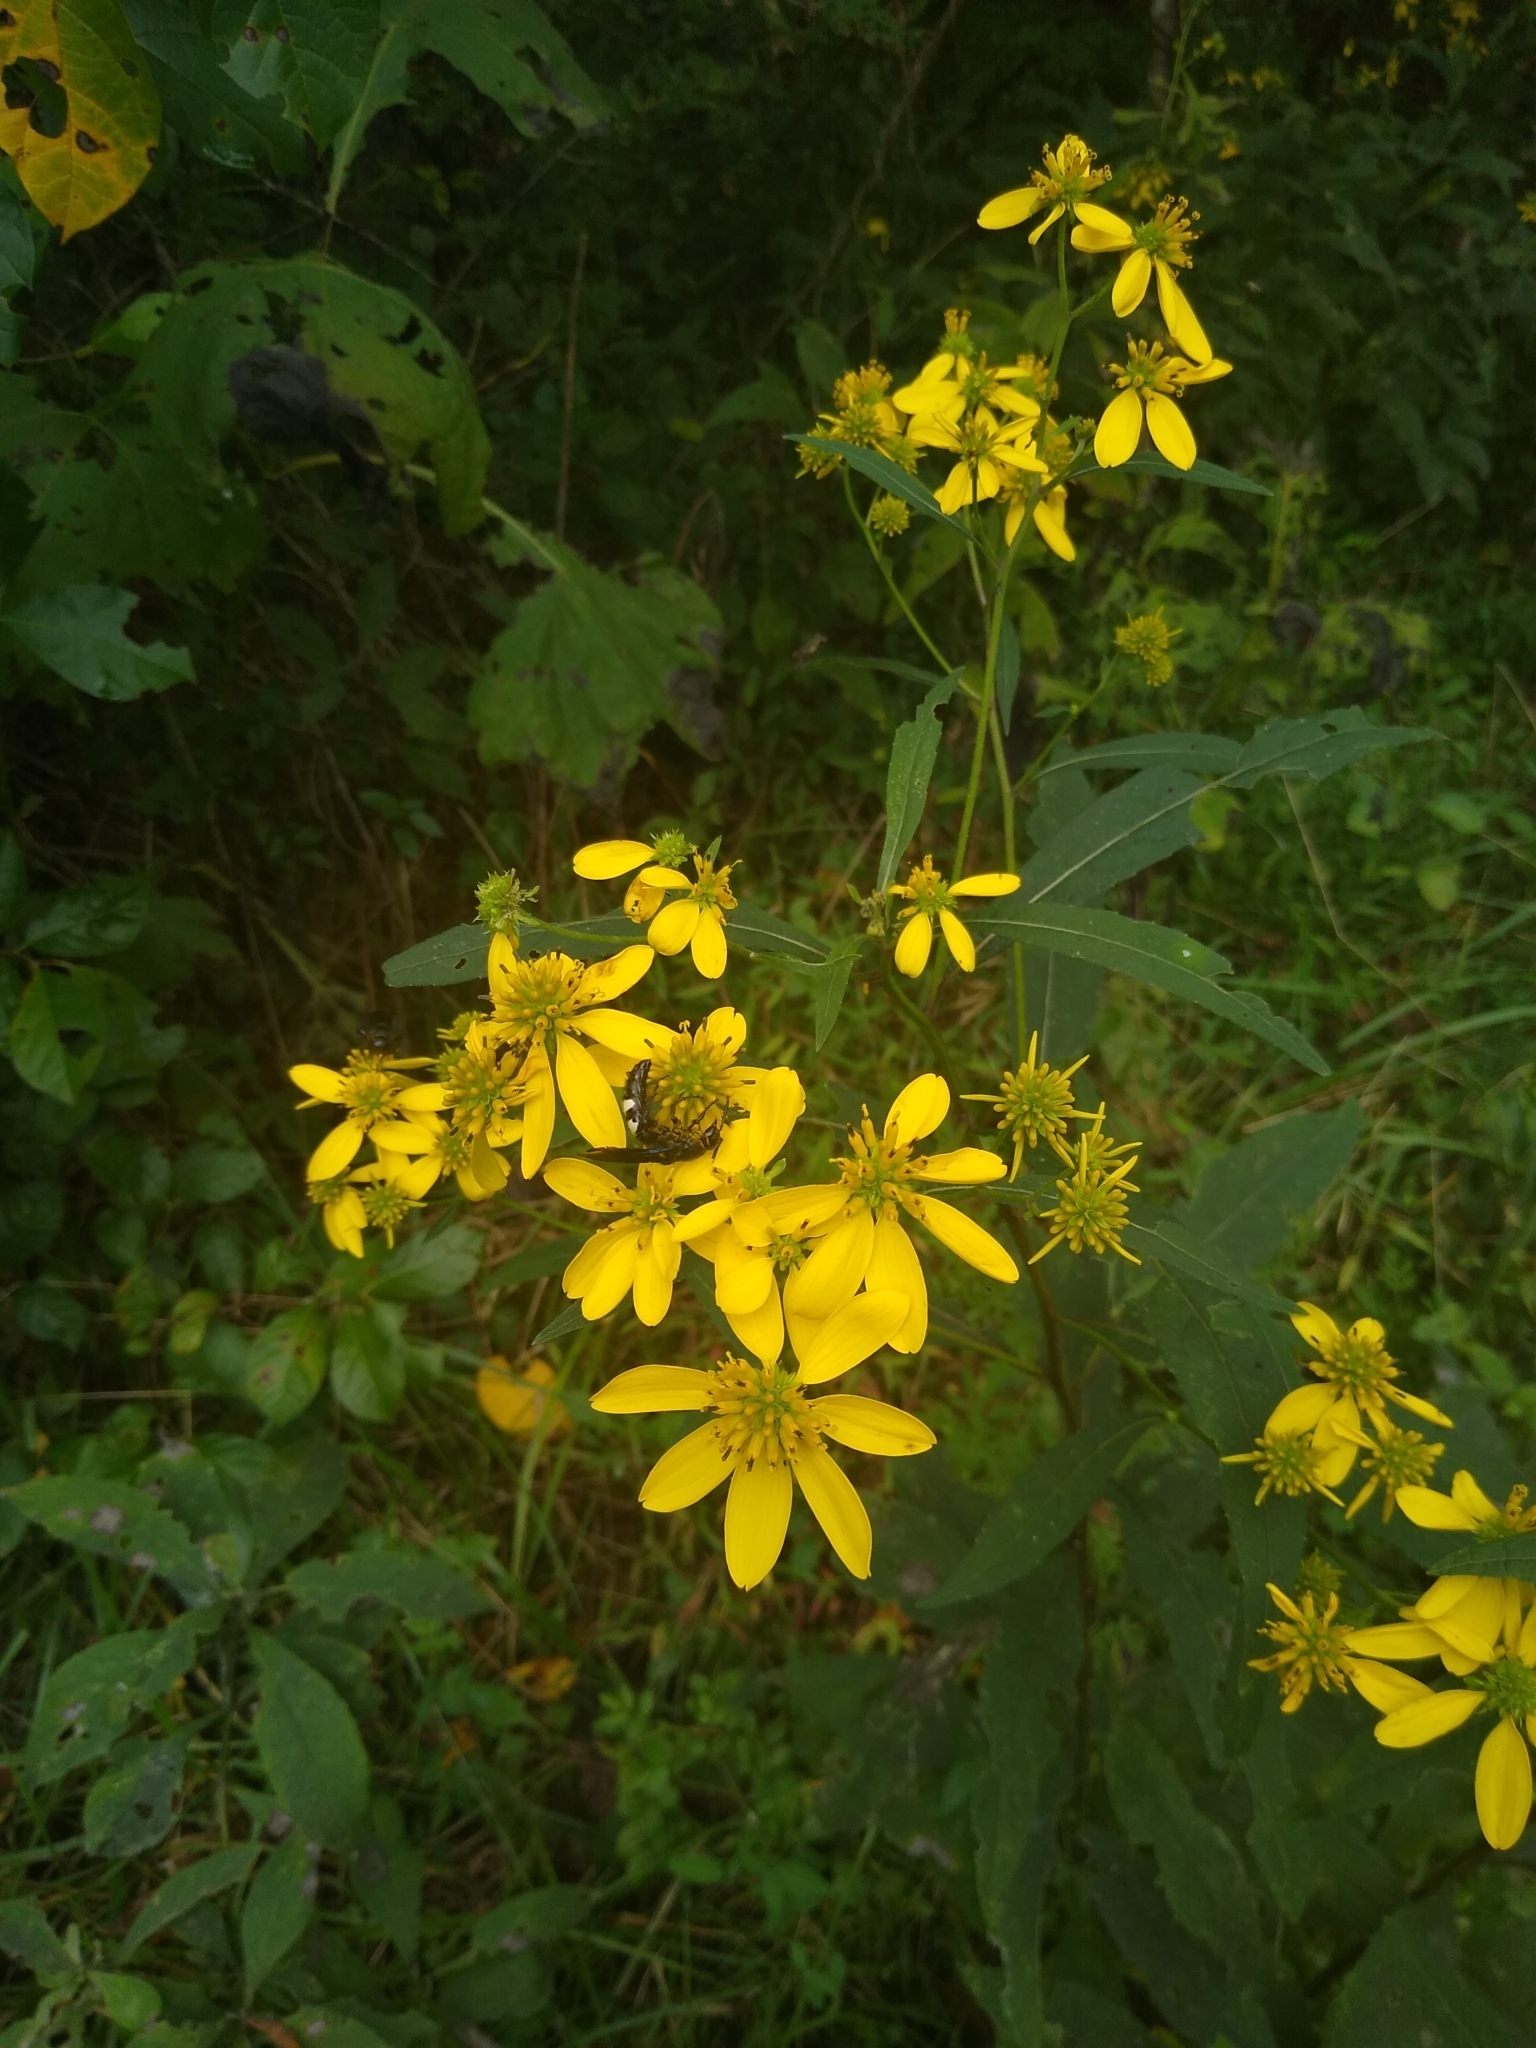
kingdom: Plantae
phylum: Tracheophyta
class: Magnoliopsida
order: Asterales
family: Asteraceae
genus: Verbesina
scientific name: Verbesina alternifolia
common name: Wingstem
